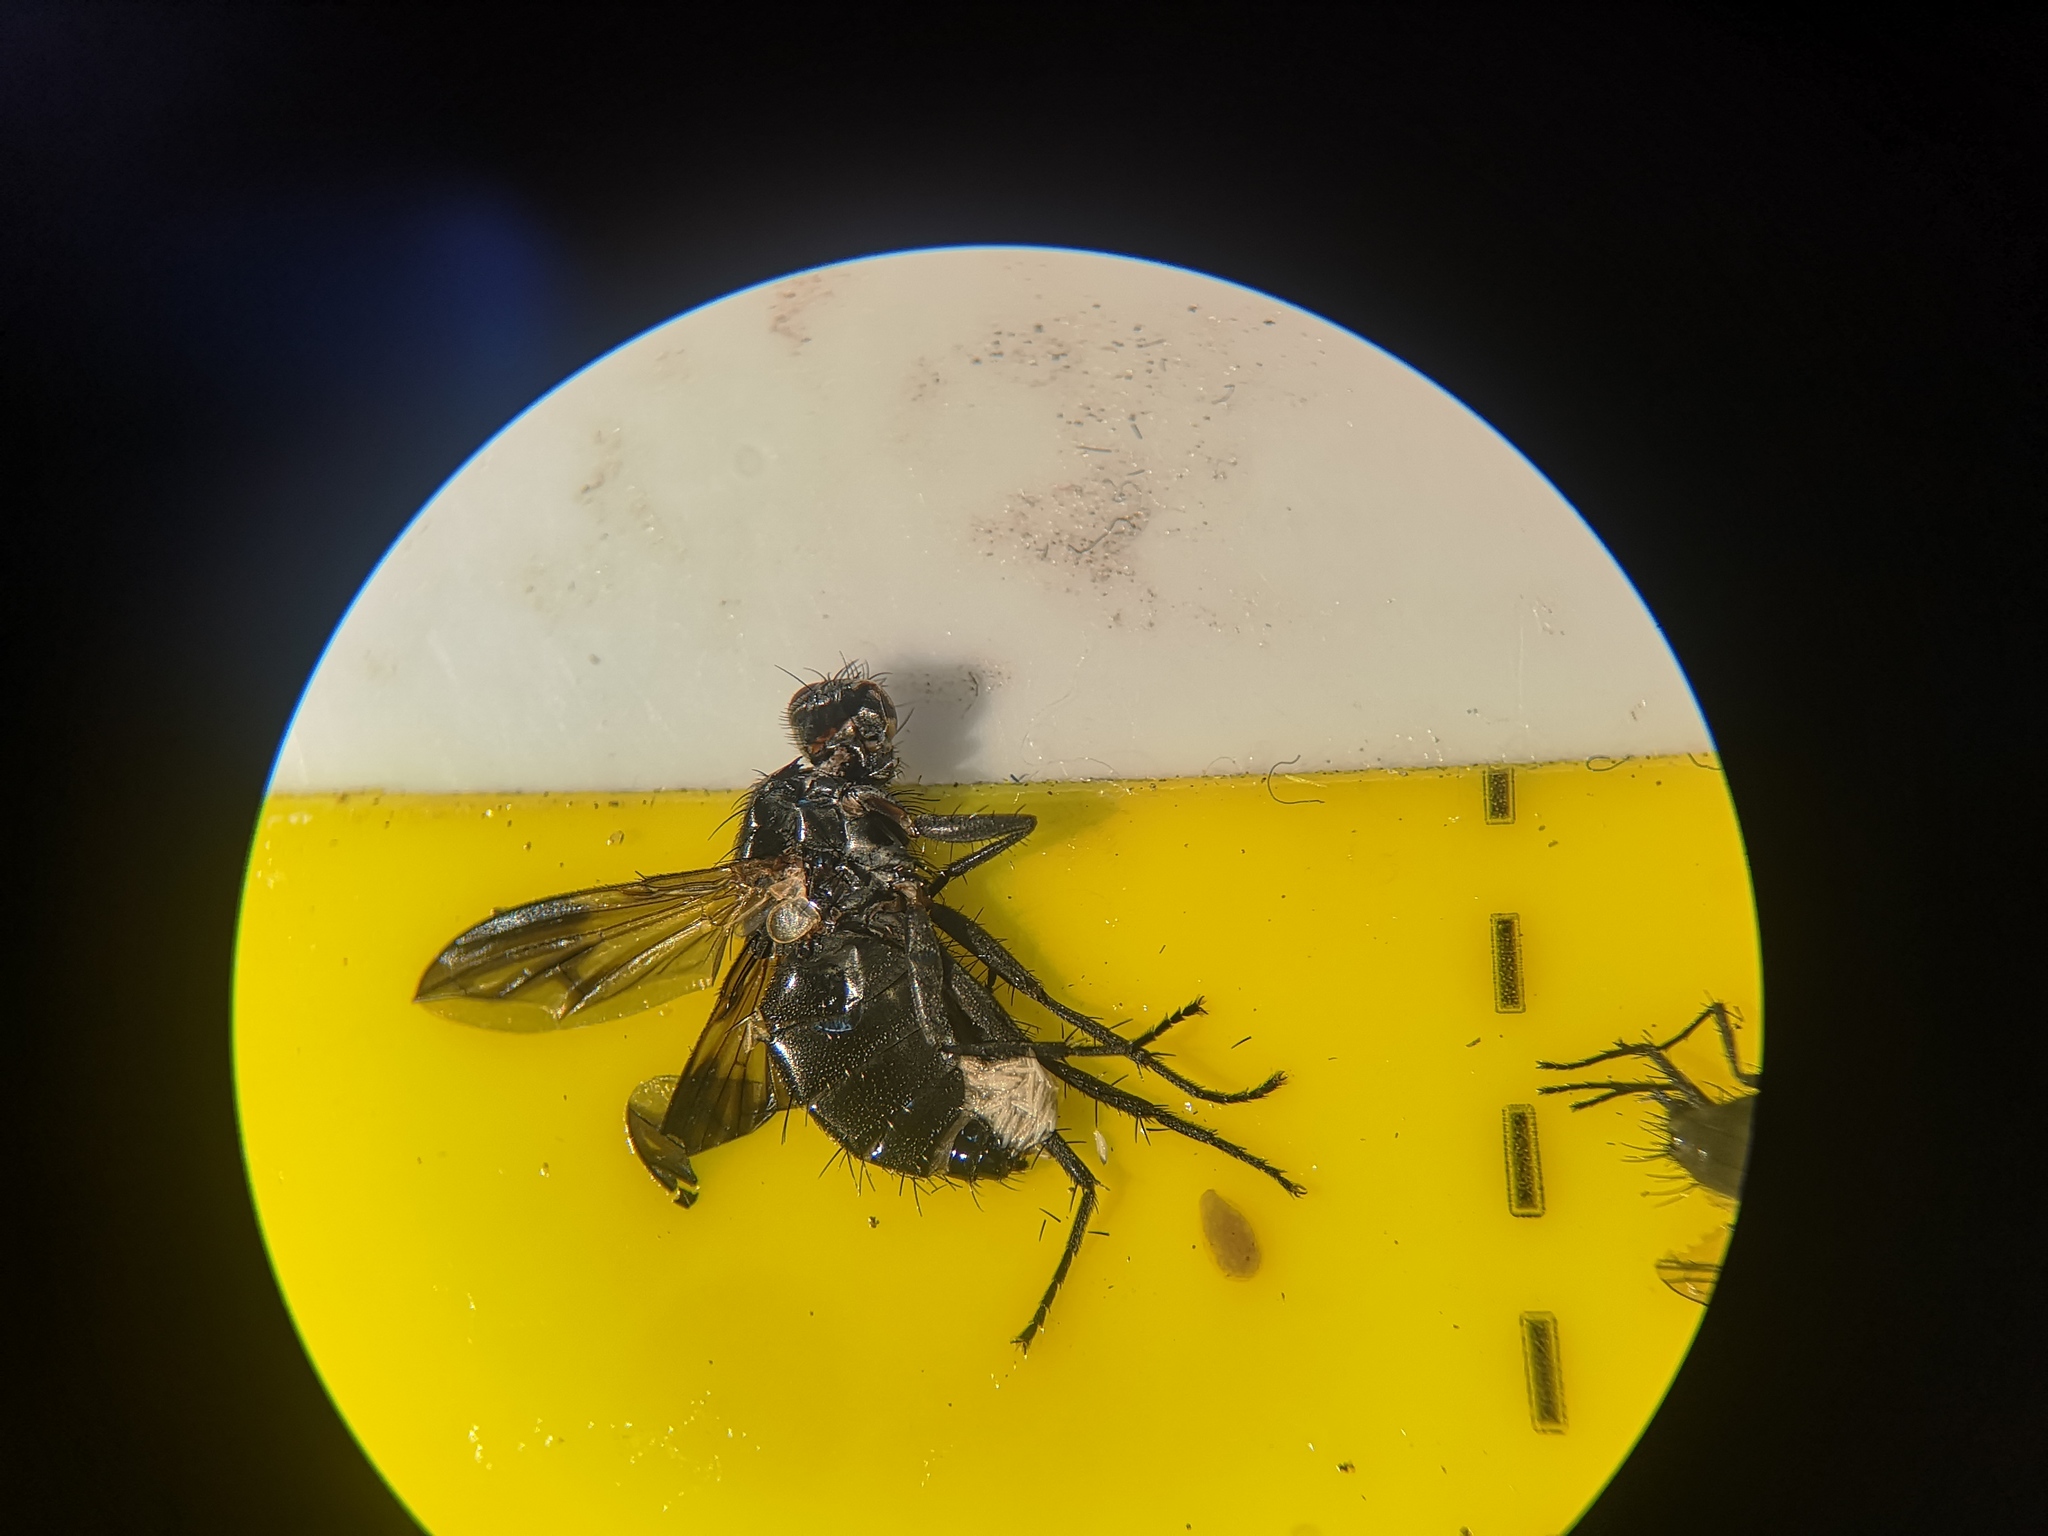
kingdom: Animalia
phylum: Arthropoda
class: Insecta
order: Diptera
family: Calliphoridae
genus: Paykullia
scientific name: Paykullia maculata
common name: Picture-winged woodlouse-fly
